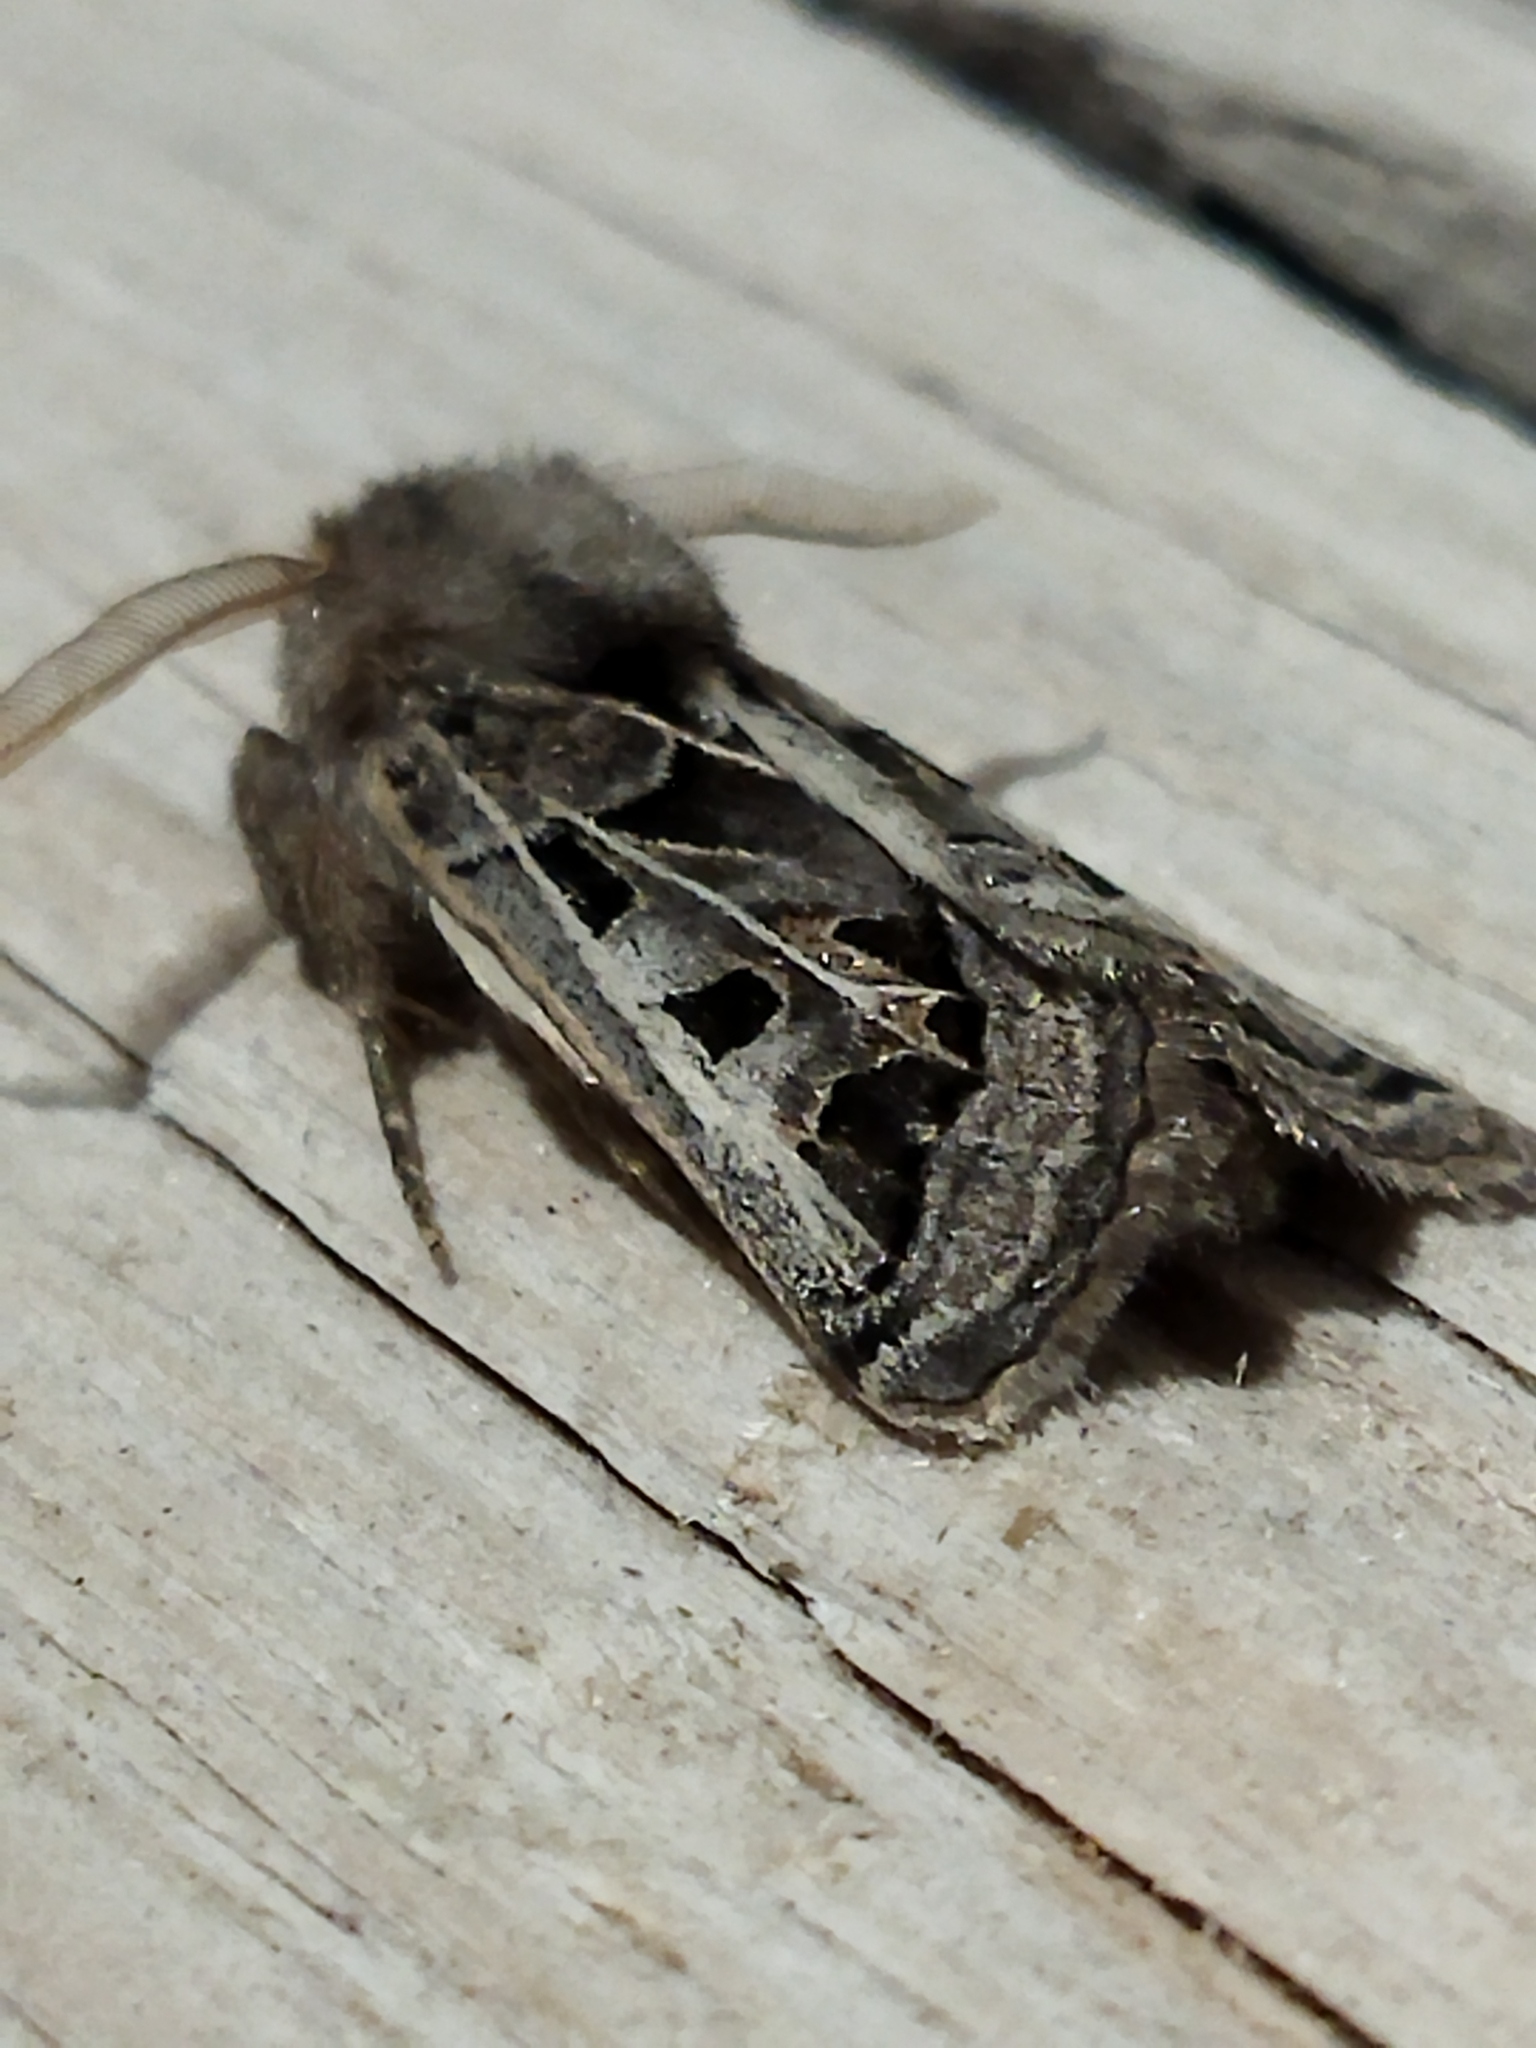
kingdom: Animalia
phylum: Arthropoda
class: Insecta
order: Lepidoptera
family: Noctuidae
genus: Episema
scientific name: Episema glaucina
